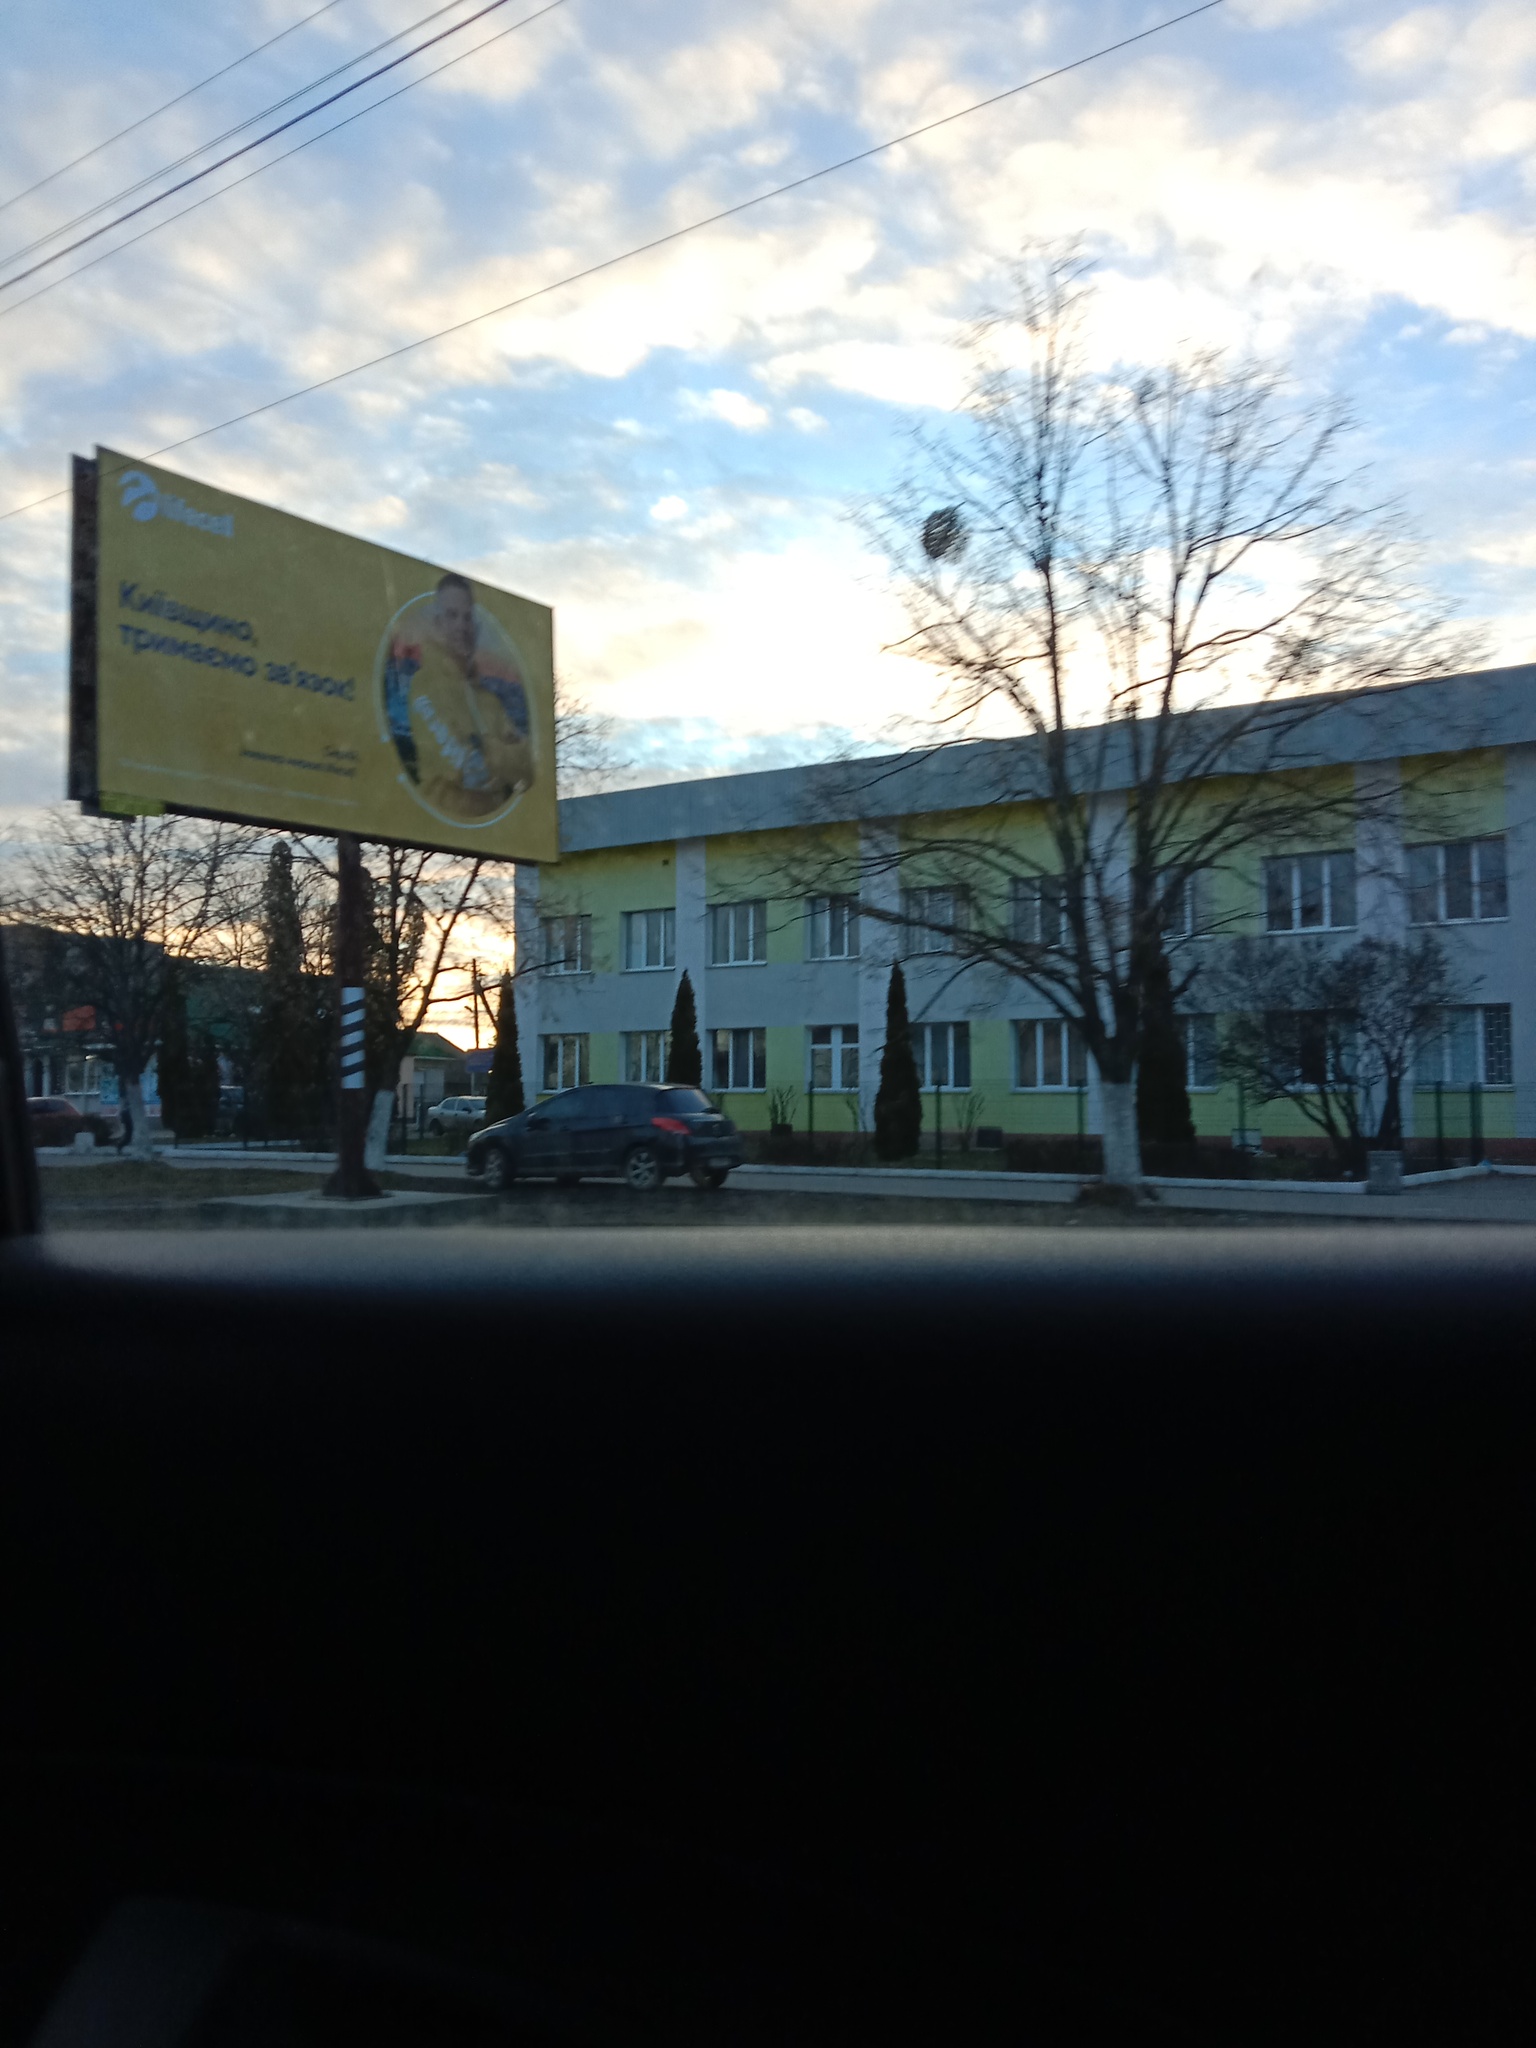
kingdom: Plantae
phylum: Tracheophyta
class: Magnoliopsida
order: Santalales
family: Viscaceae
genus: Viscum
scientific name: Viscum album
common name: Mistletoe
